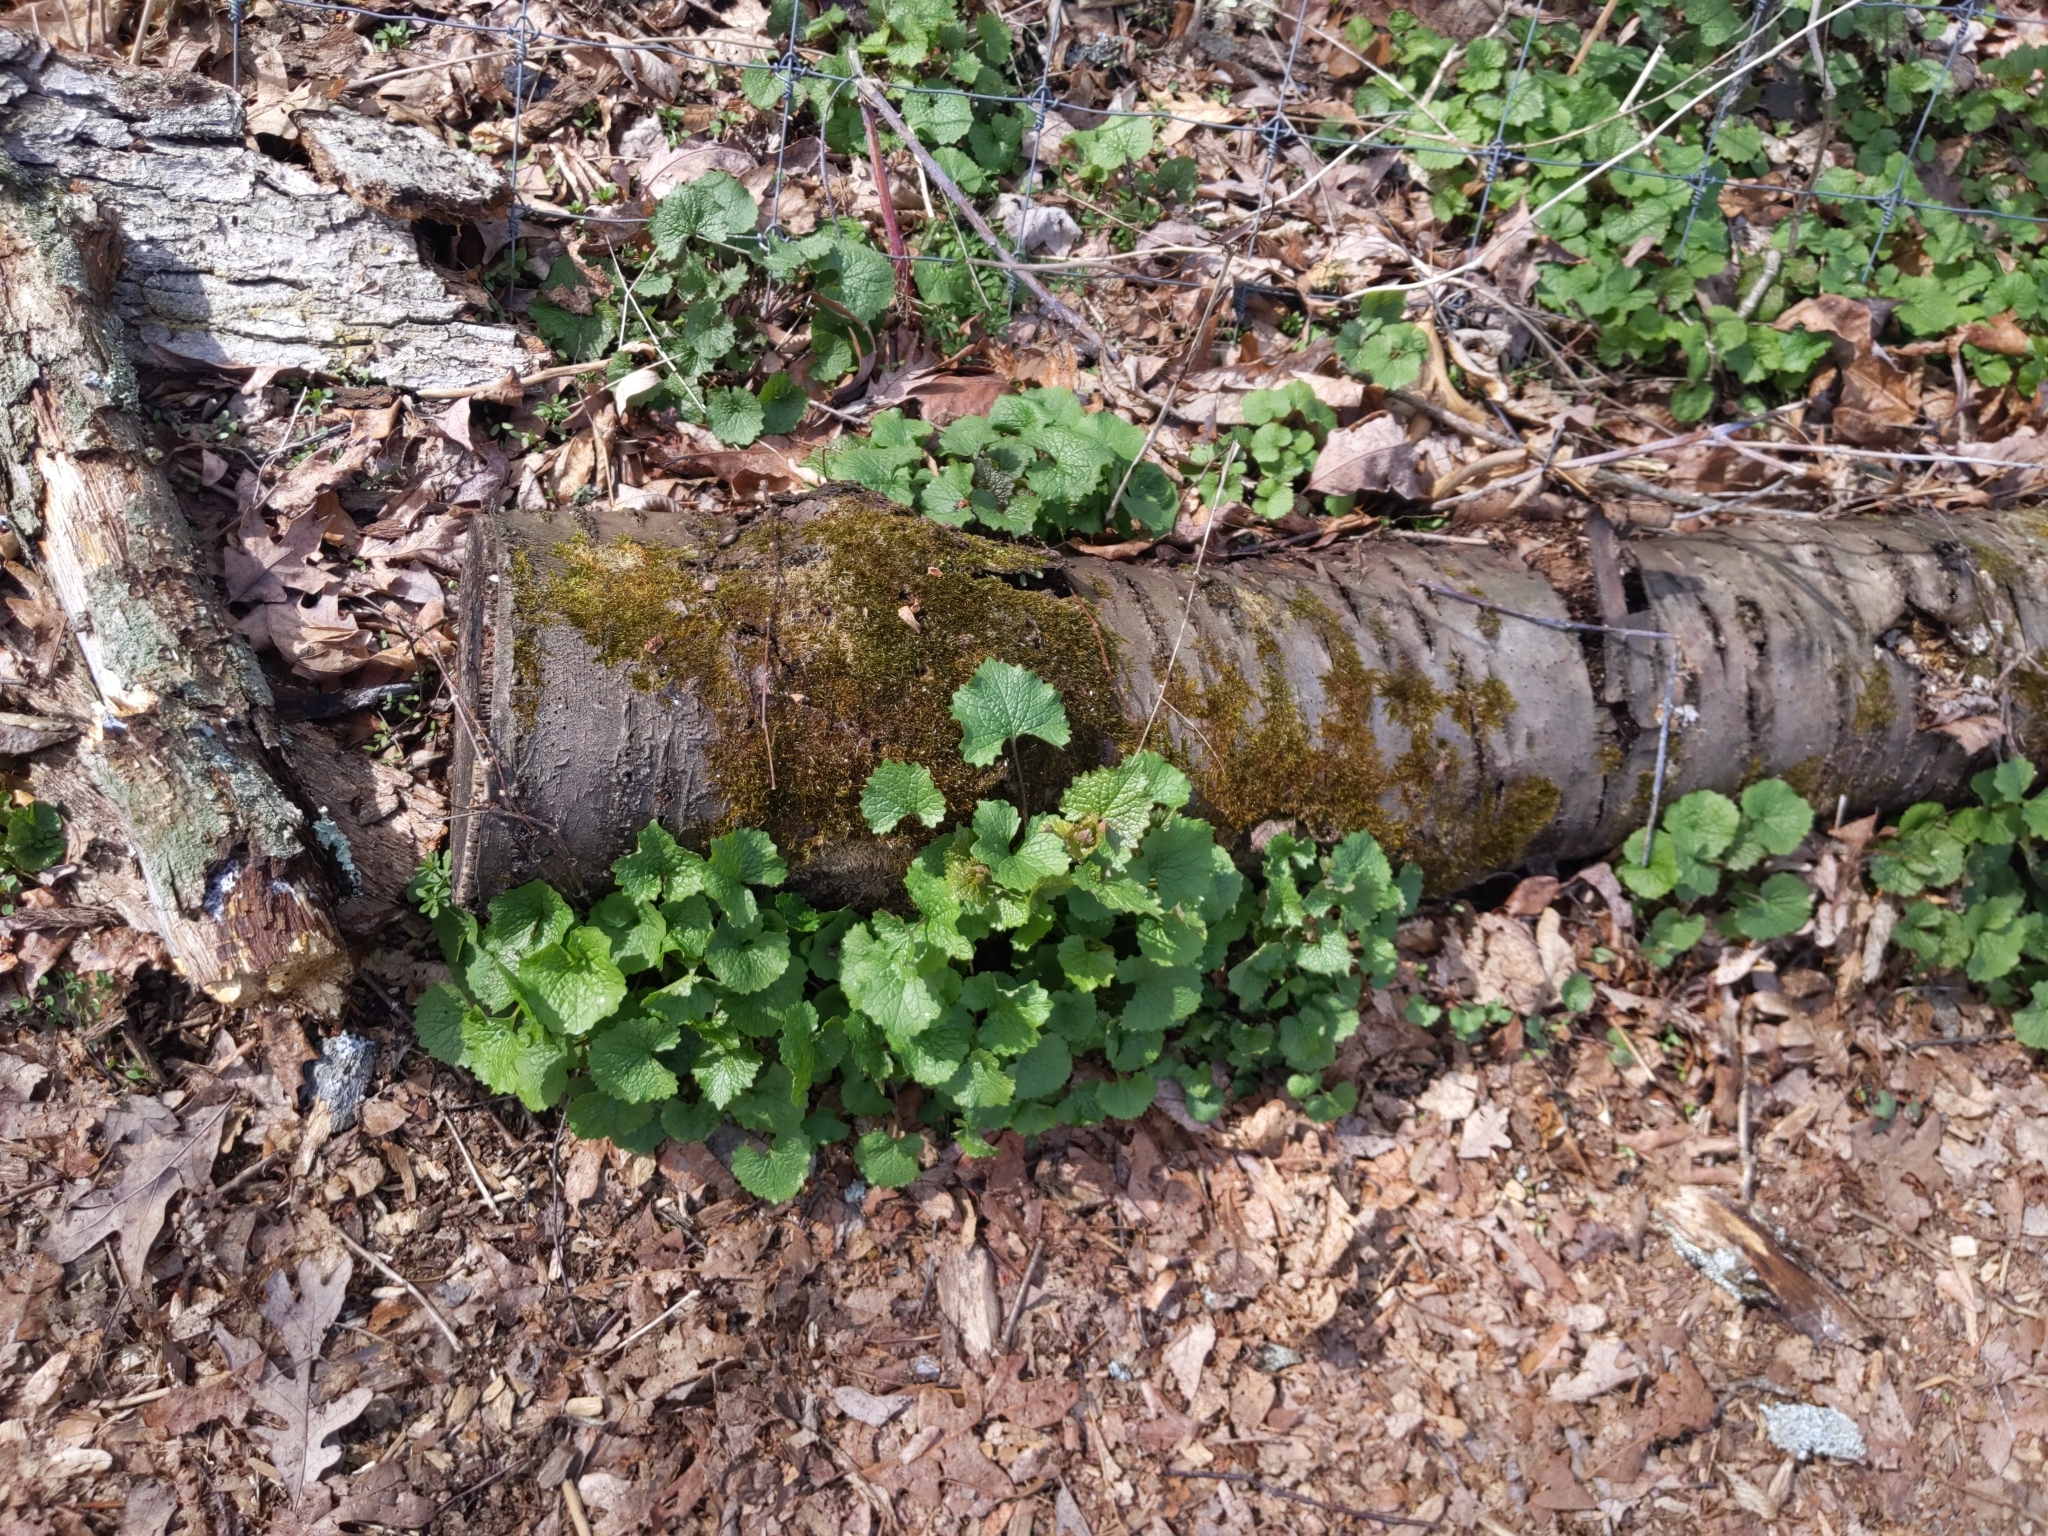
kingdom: Plantae
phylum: Tracheophyta
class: Magnoliopsida
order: Brassicales
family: Brassicaceae
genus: Alliaria
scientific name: Alliaria petiolata
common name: Garlic mustard
